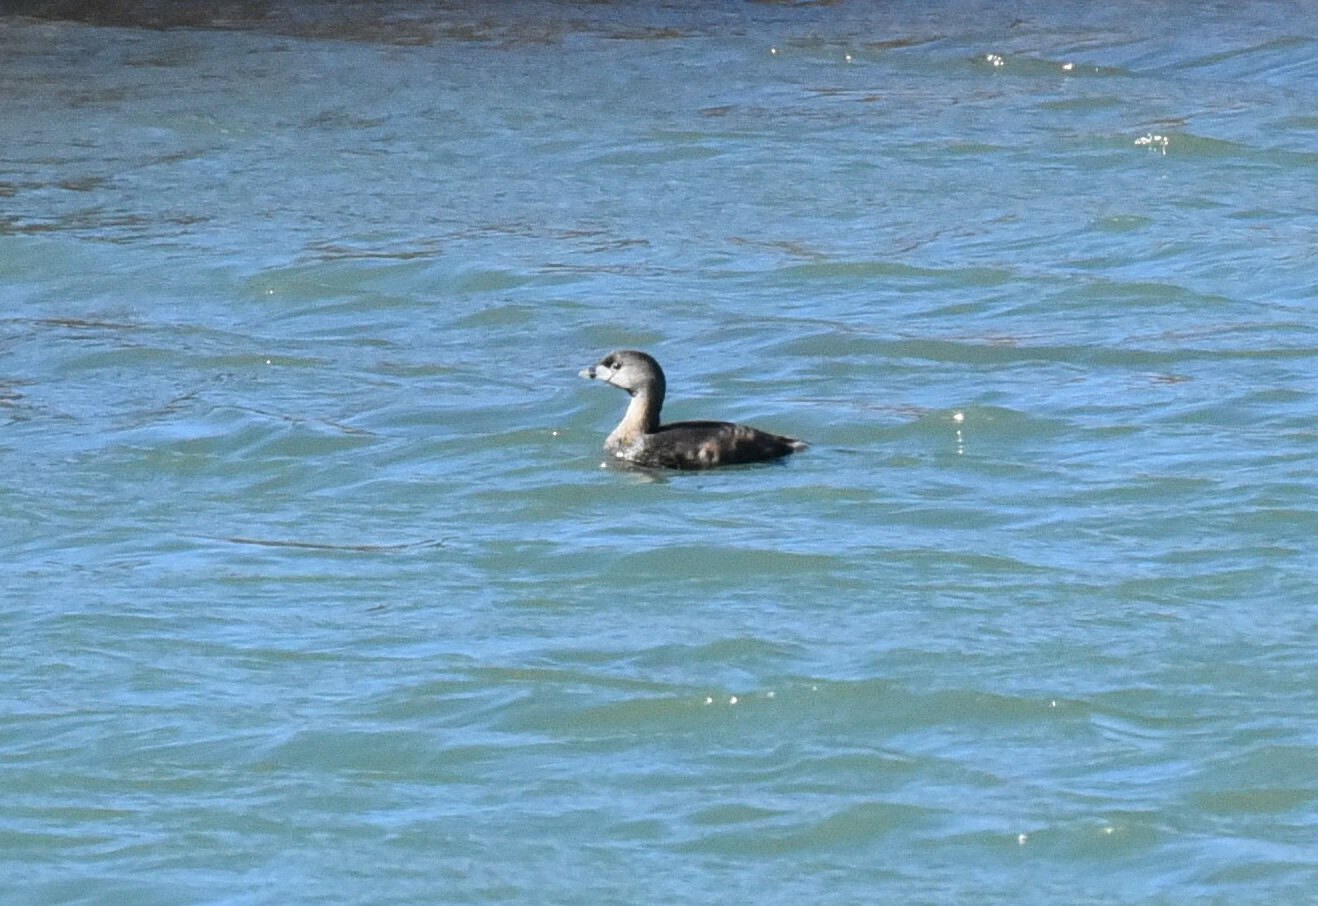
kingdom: Animalia
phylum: Chordata
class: Aves
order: Podicipediformes
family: Podicipedidae
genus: Podilymbus
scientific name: Podilymbus podiceps
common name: Pied-billed grebe
